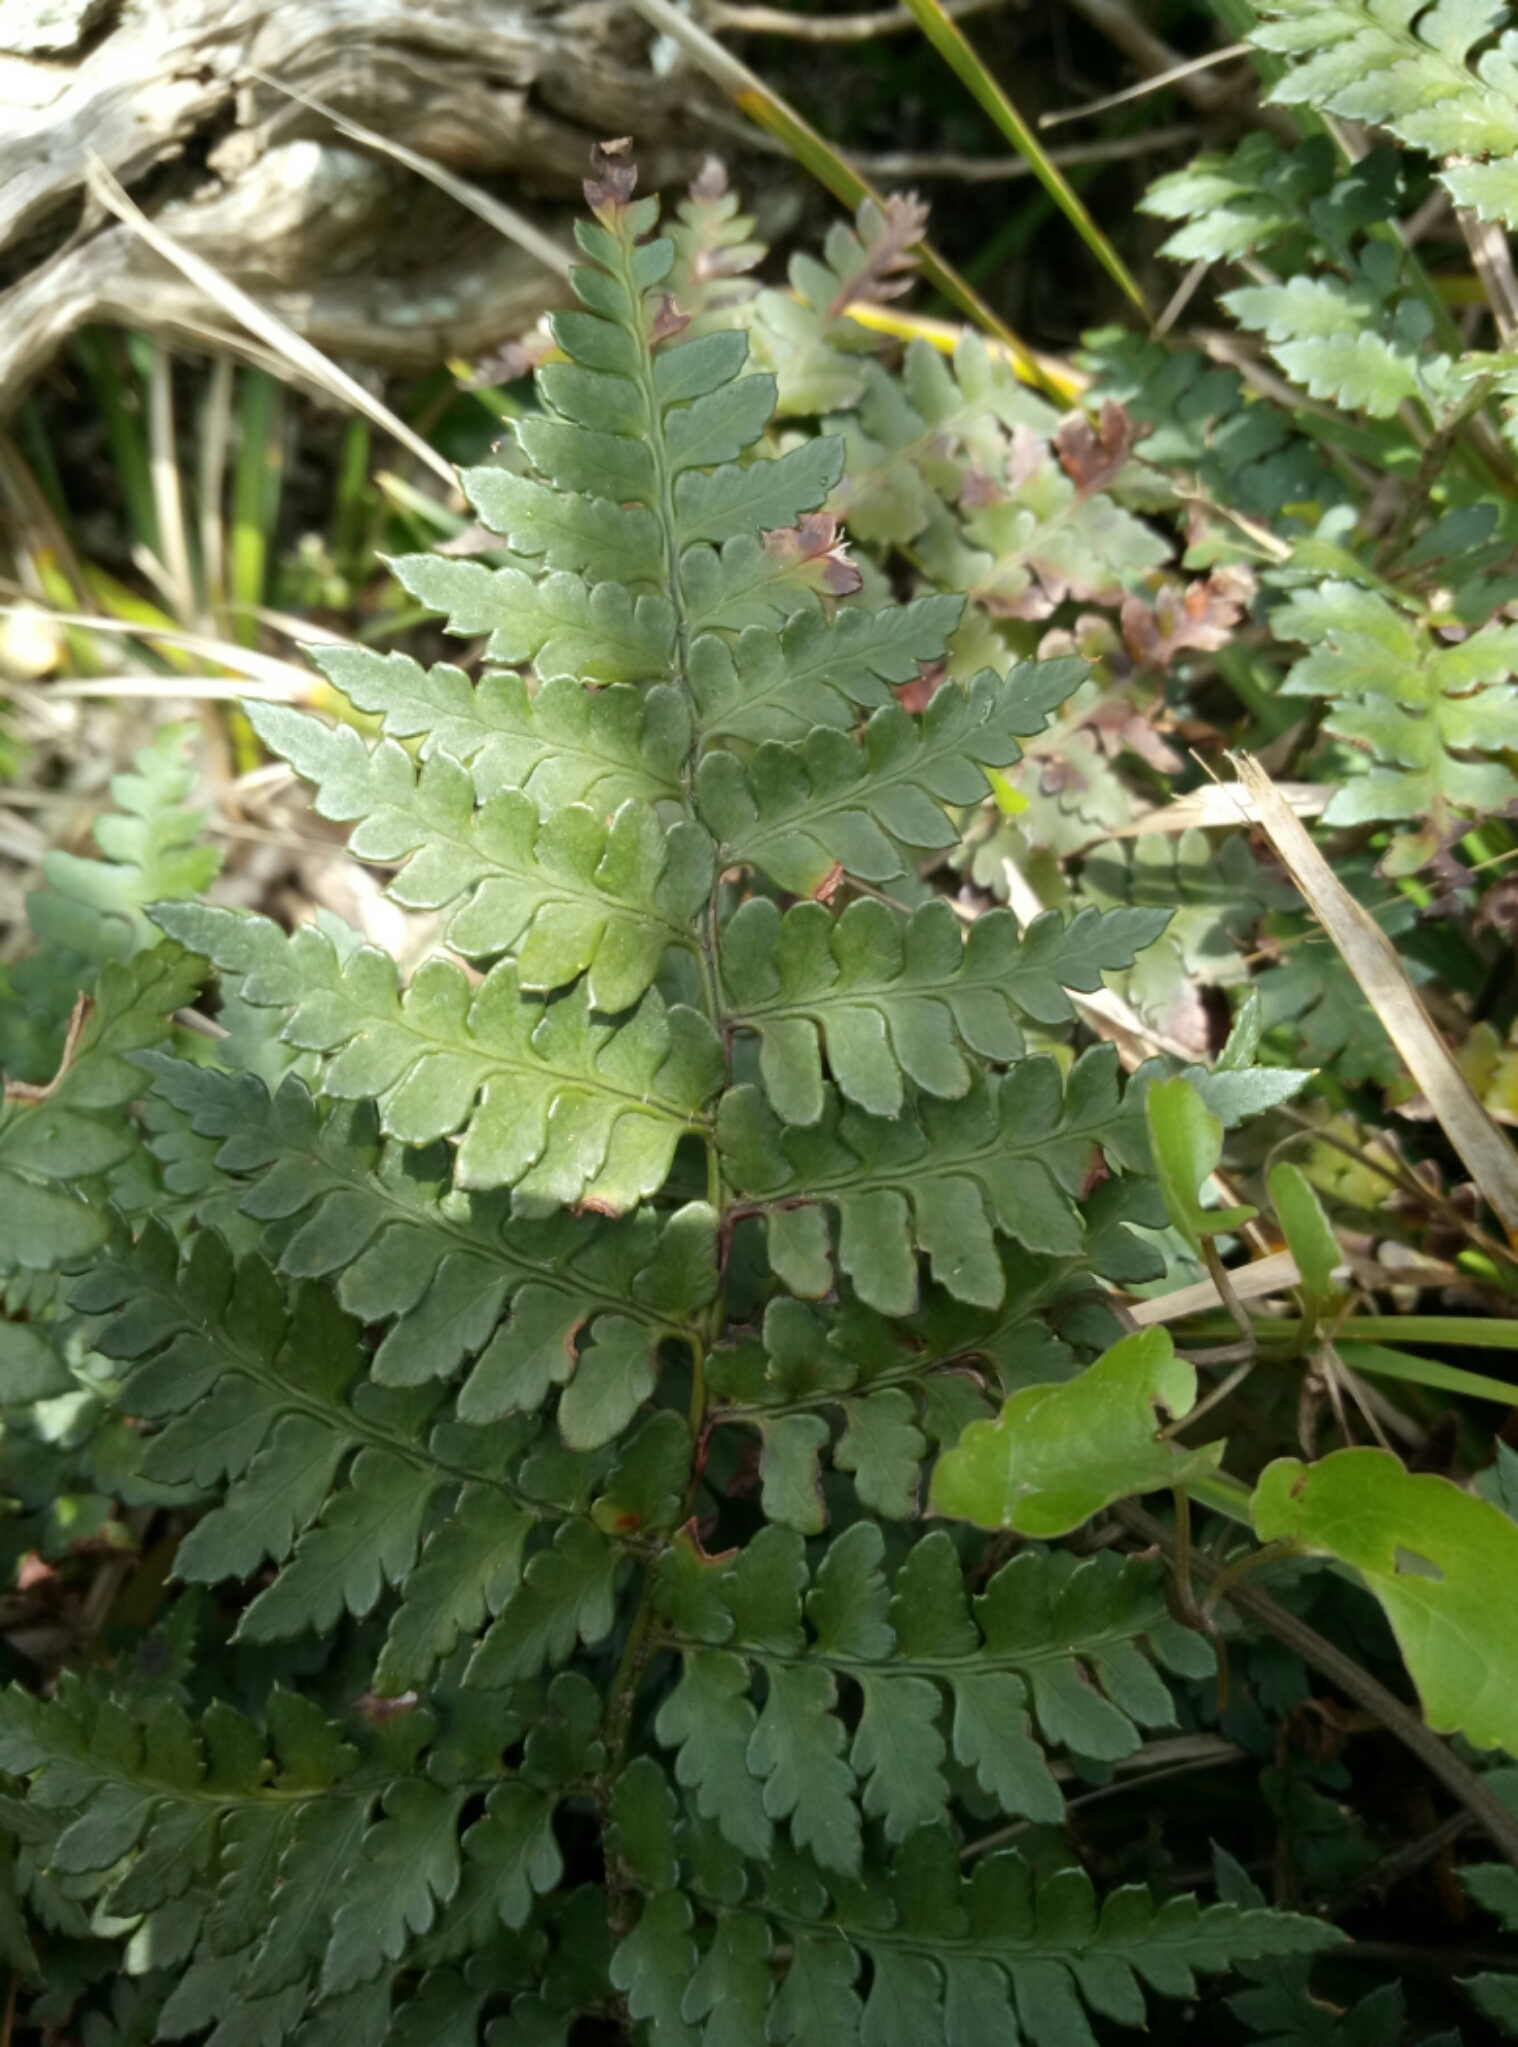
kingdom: Plantae
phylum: Tracheophyta
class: Polypodiopsida
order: Polypodiales
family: Dryopteridaceae
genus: Polystichum
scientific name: Polystichum oculatum
